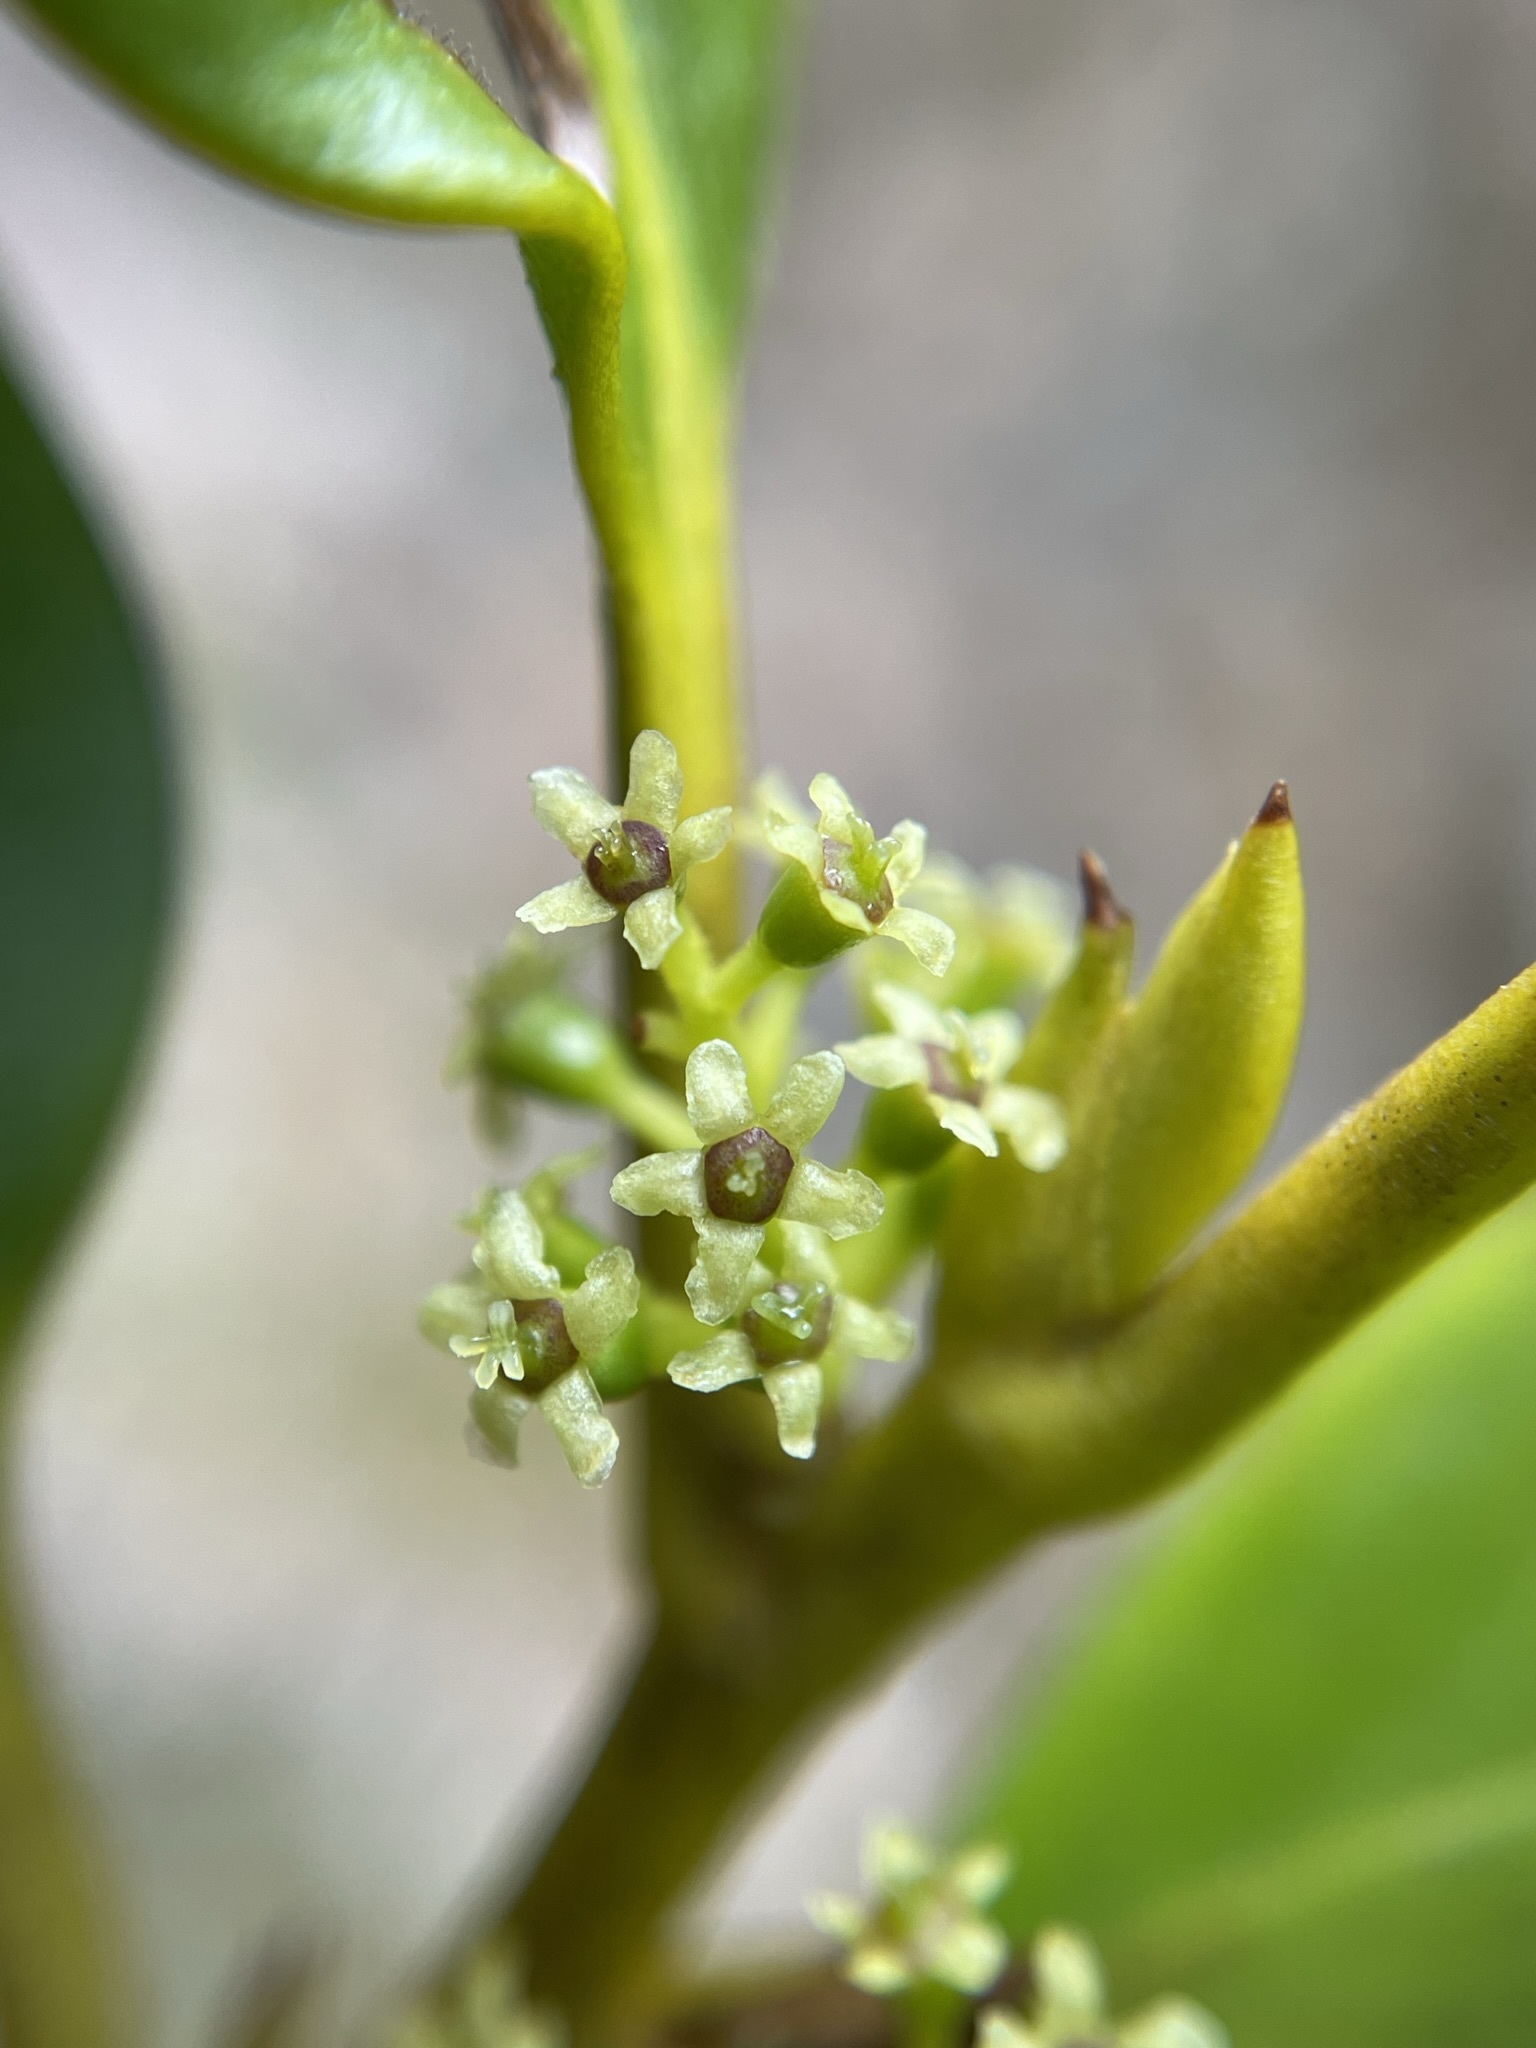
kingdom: Plantae
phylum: Tracheophyta
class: Magnoliopsida
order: Apiales
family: Griseliniaceae
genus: Griselinia
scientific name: Griselinia littoralis
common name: New zealand broadleaf
